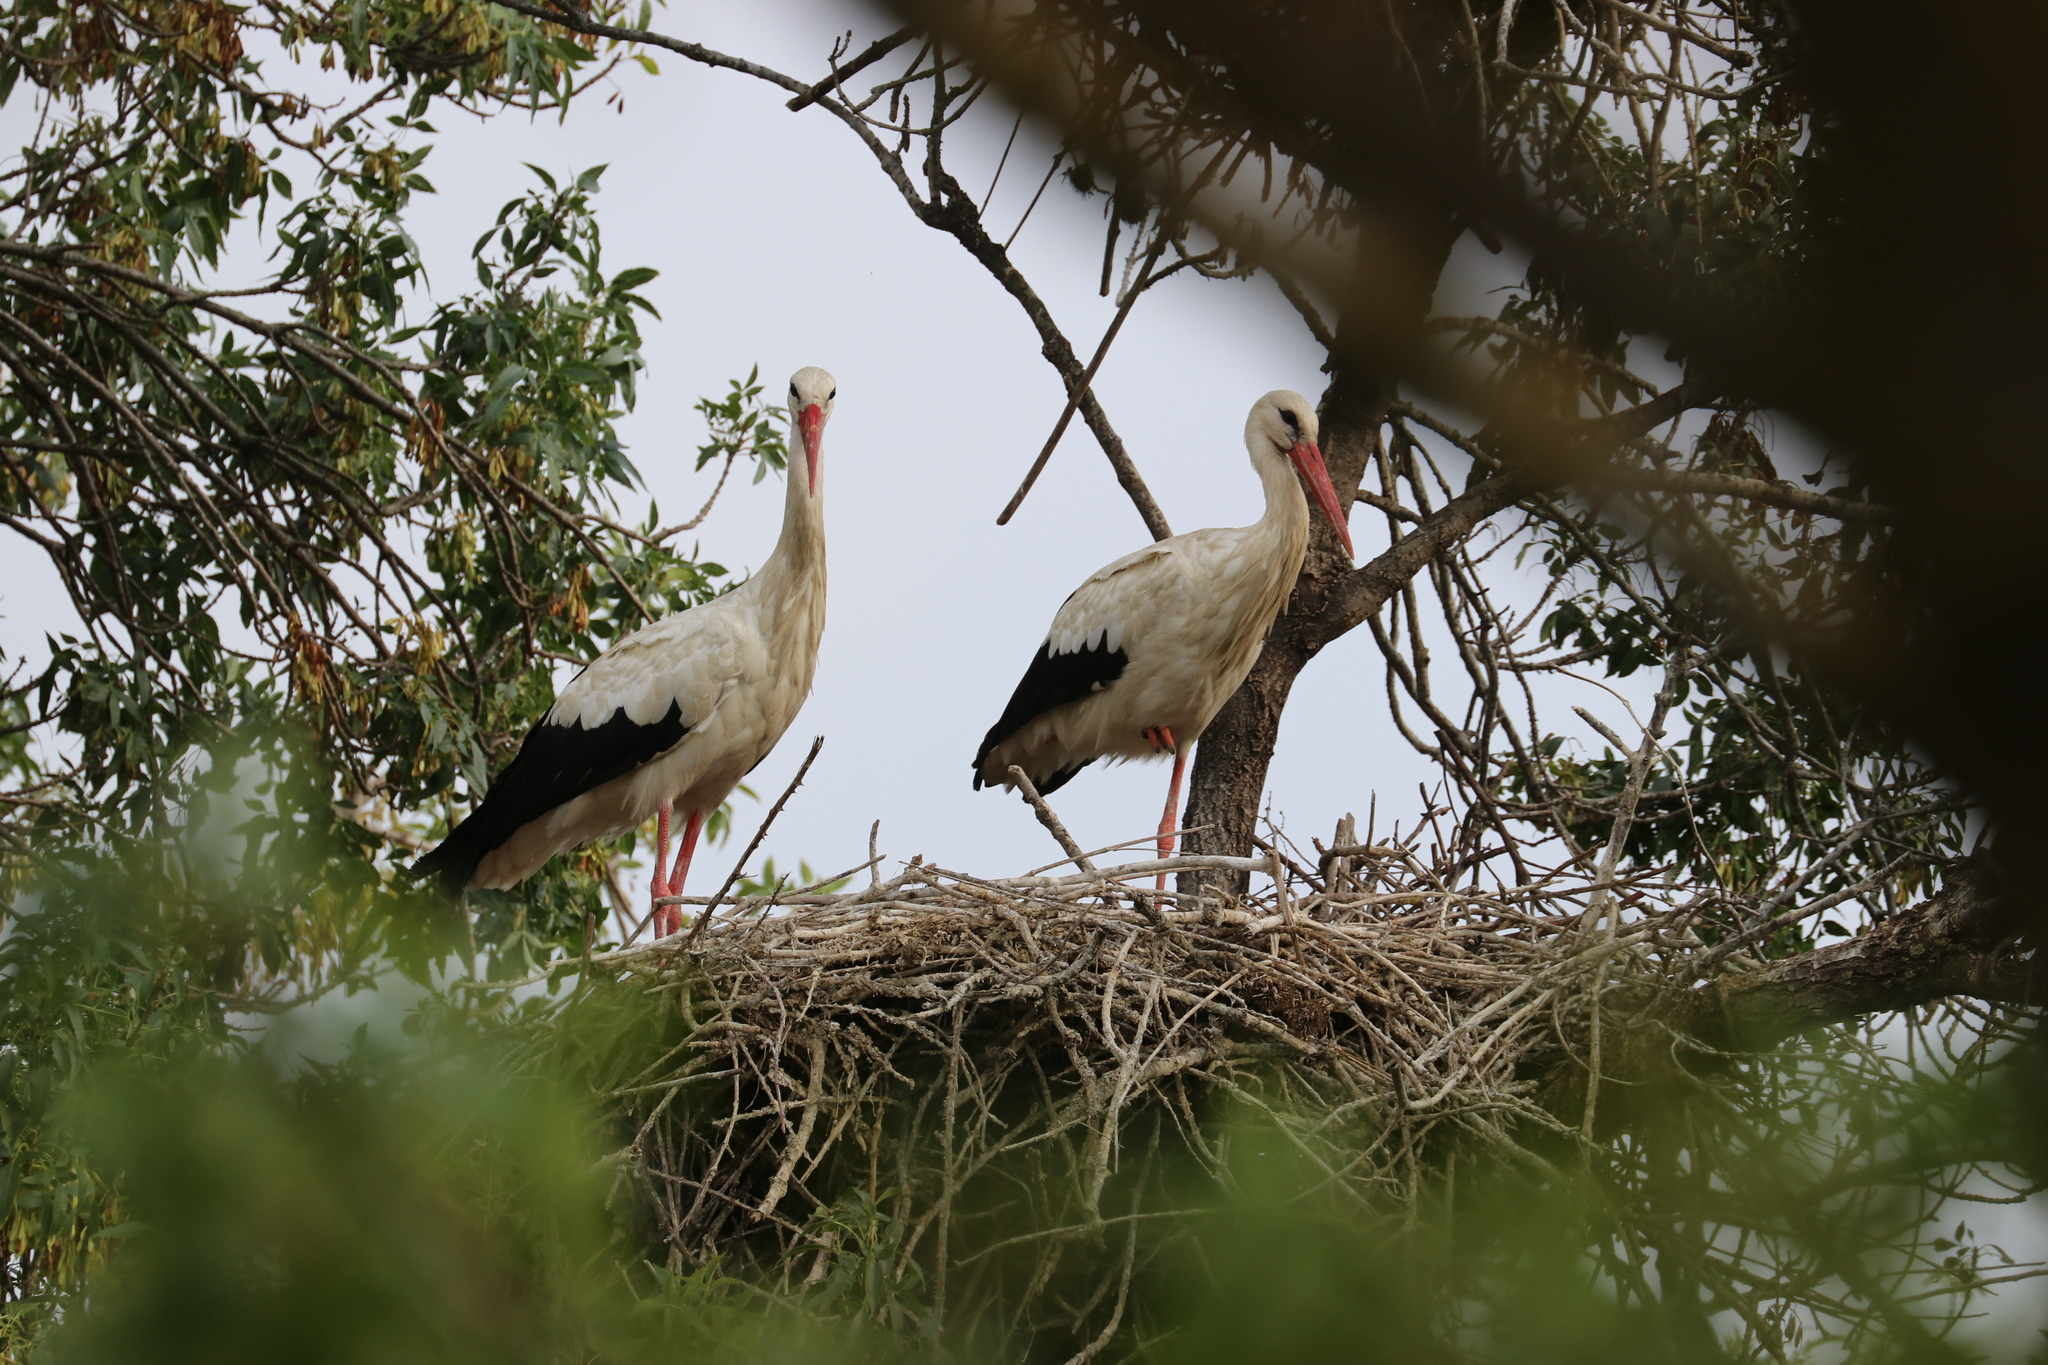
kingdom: Animalia
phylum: Chordata
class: Aves
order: Ciconiiformes
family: Ciconiidae
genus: Ciconia
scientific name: Ciconia ciconia
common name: White stork
